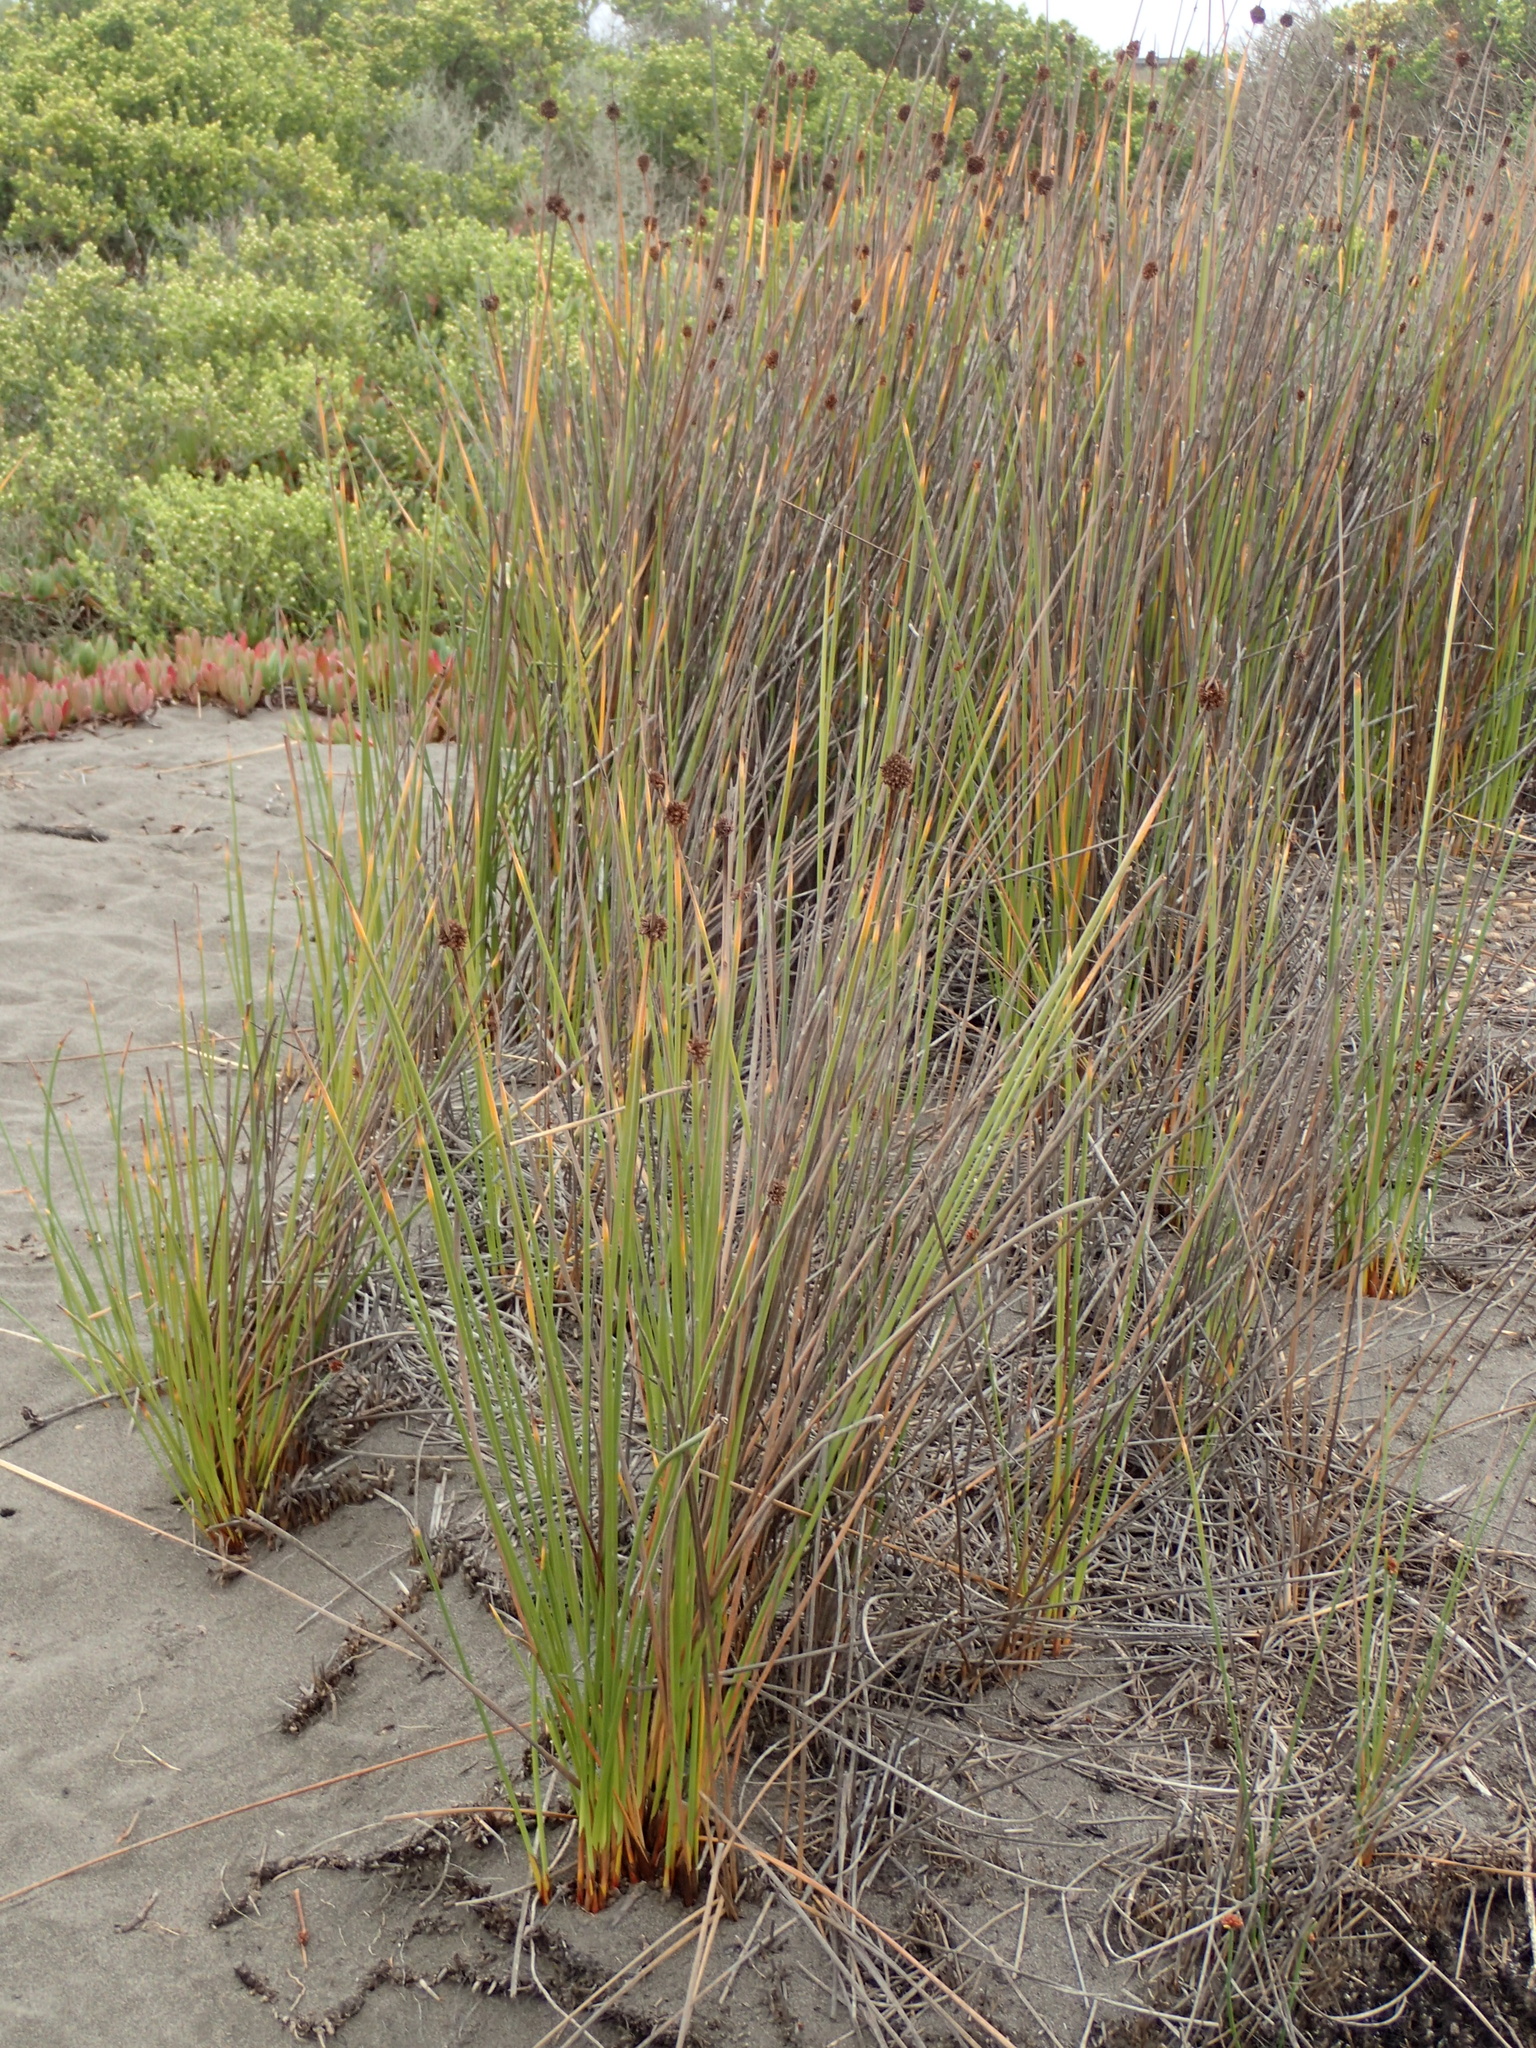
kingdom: Plantae
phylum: Tracheophyta
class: Liliopsida
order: Poales
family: Cyperaceae
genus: Ficinia
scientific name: Ficinia nodosa
